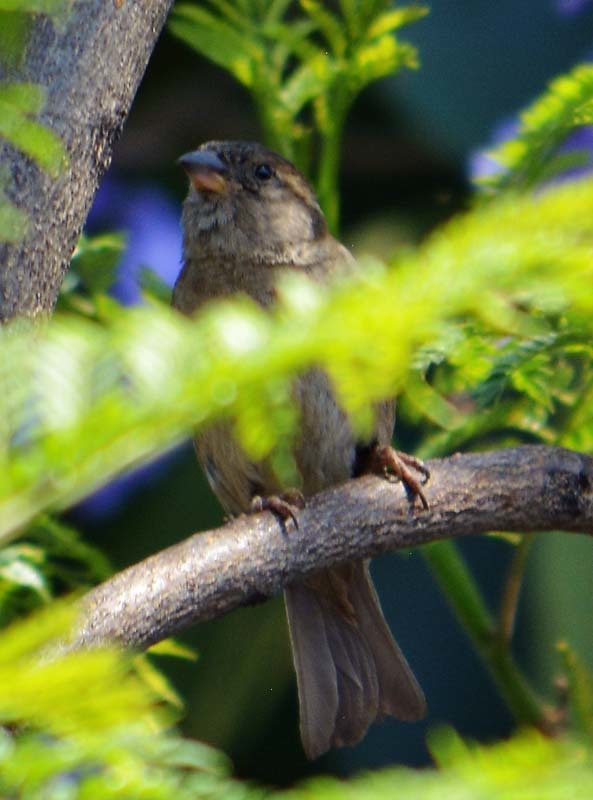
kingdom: Animalia
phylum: Chordata
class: Aves
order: Passeriformes
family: Passeridae
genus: Passer
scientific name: Passer domesticus
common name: House sparrow
